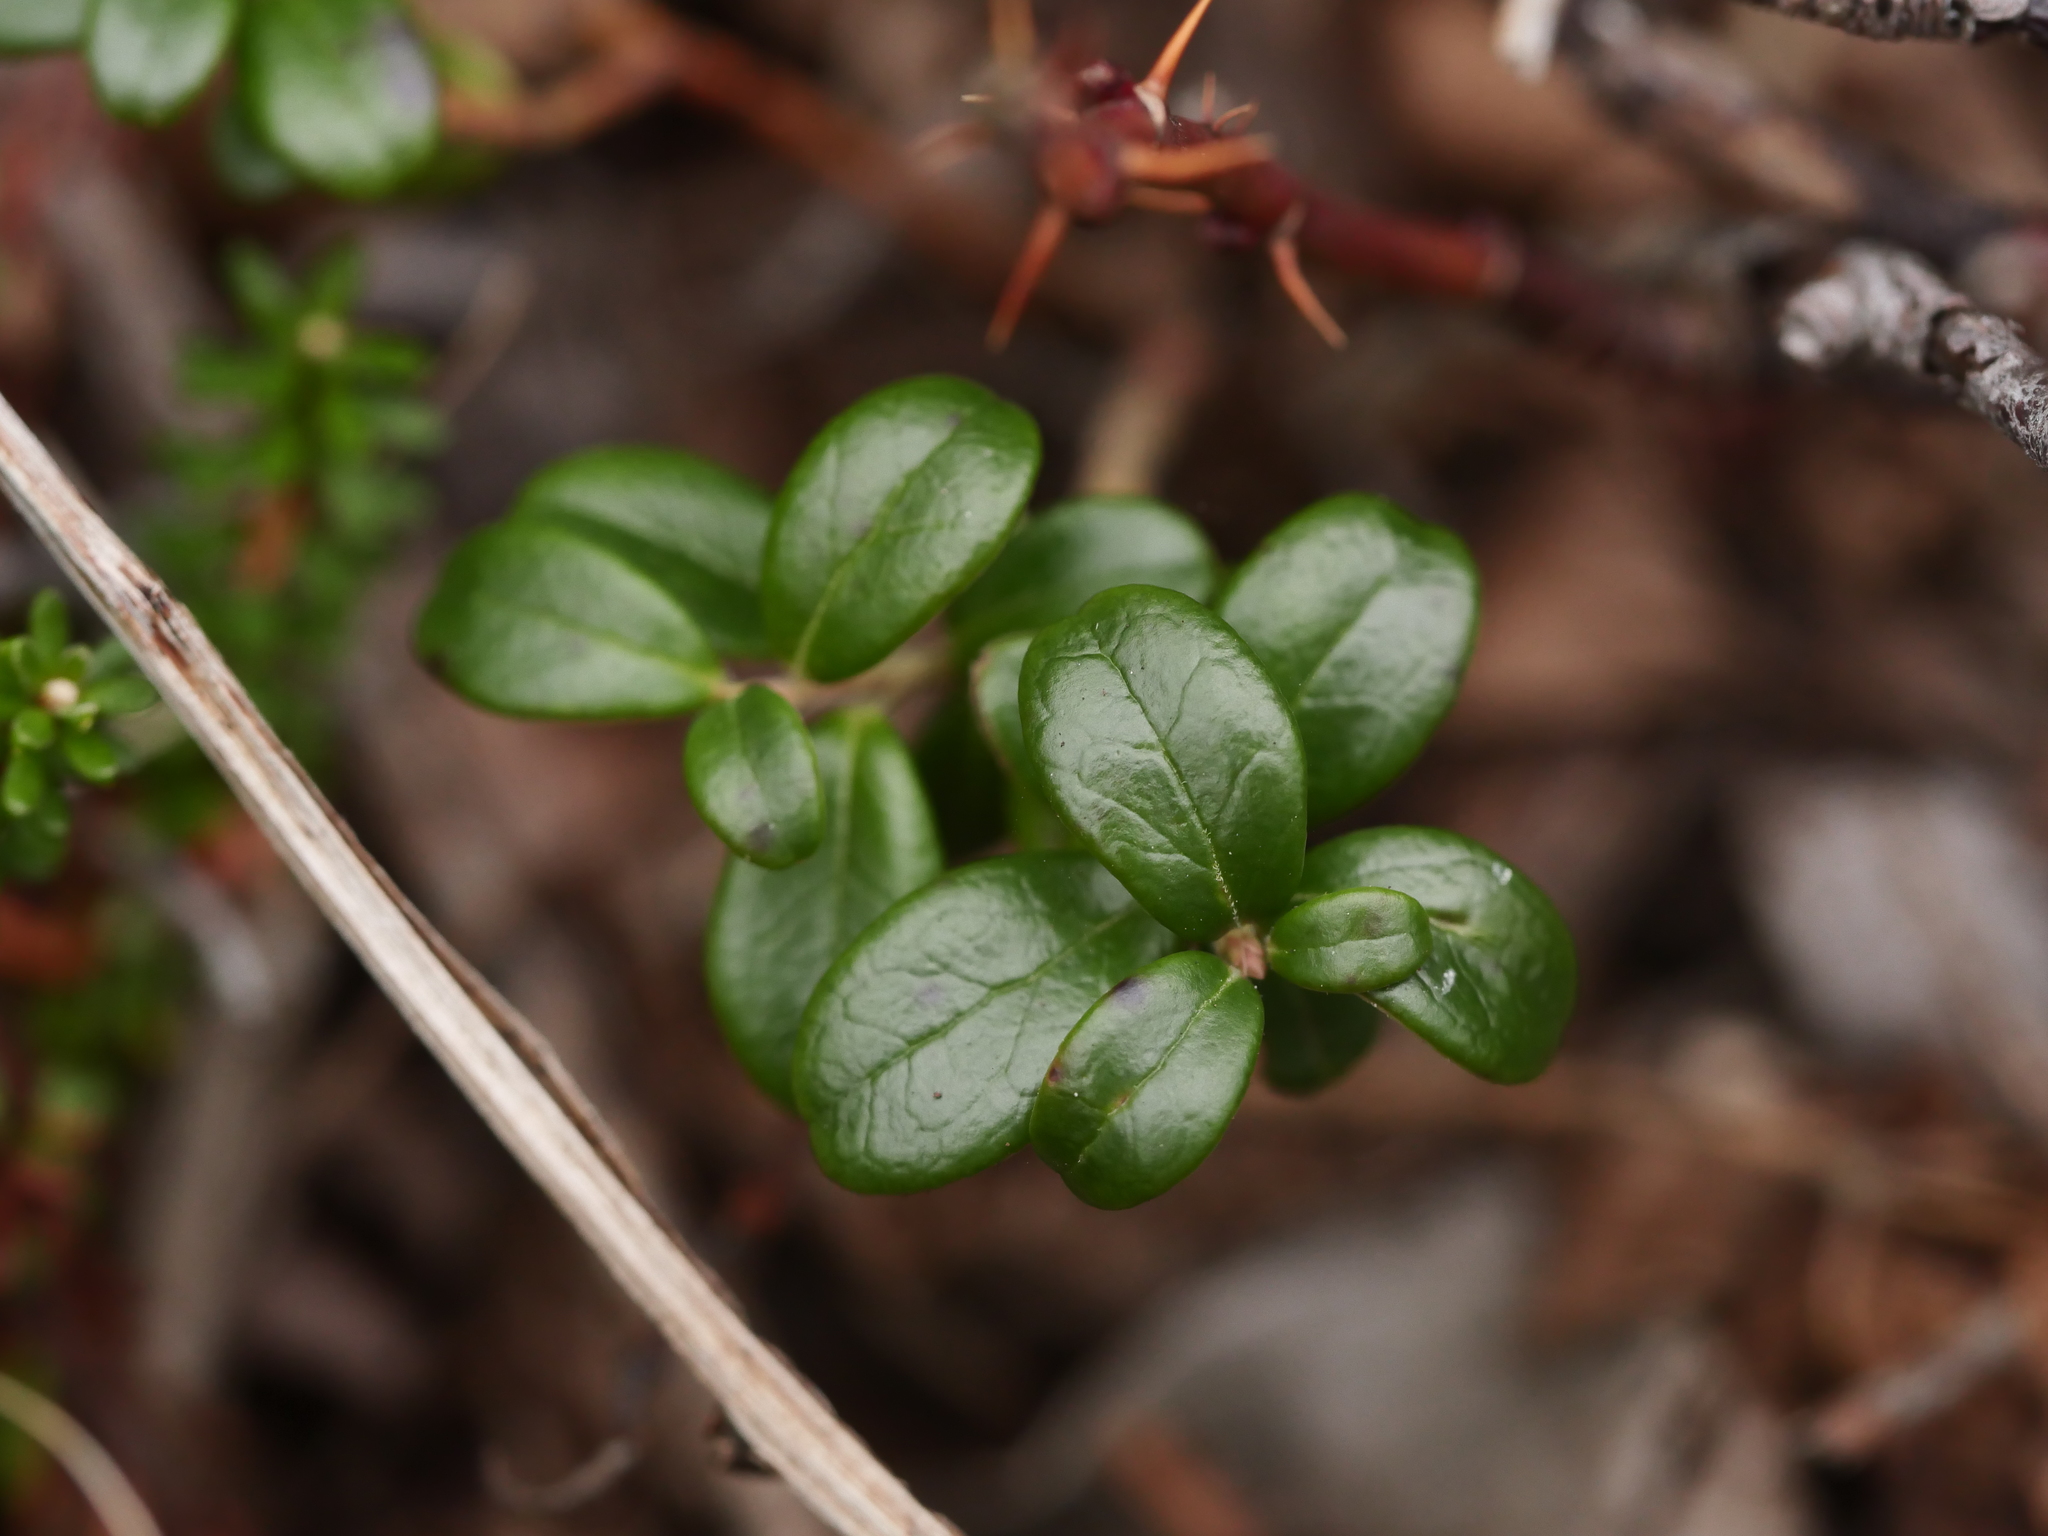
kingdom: Plantae
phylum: Tracheophyta
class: Magnoliopsida
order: Ericales
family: Ericaceae
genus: Vaccinium
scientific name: Vaccinium vitis-idaea
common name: Cowberry
